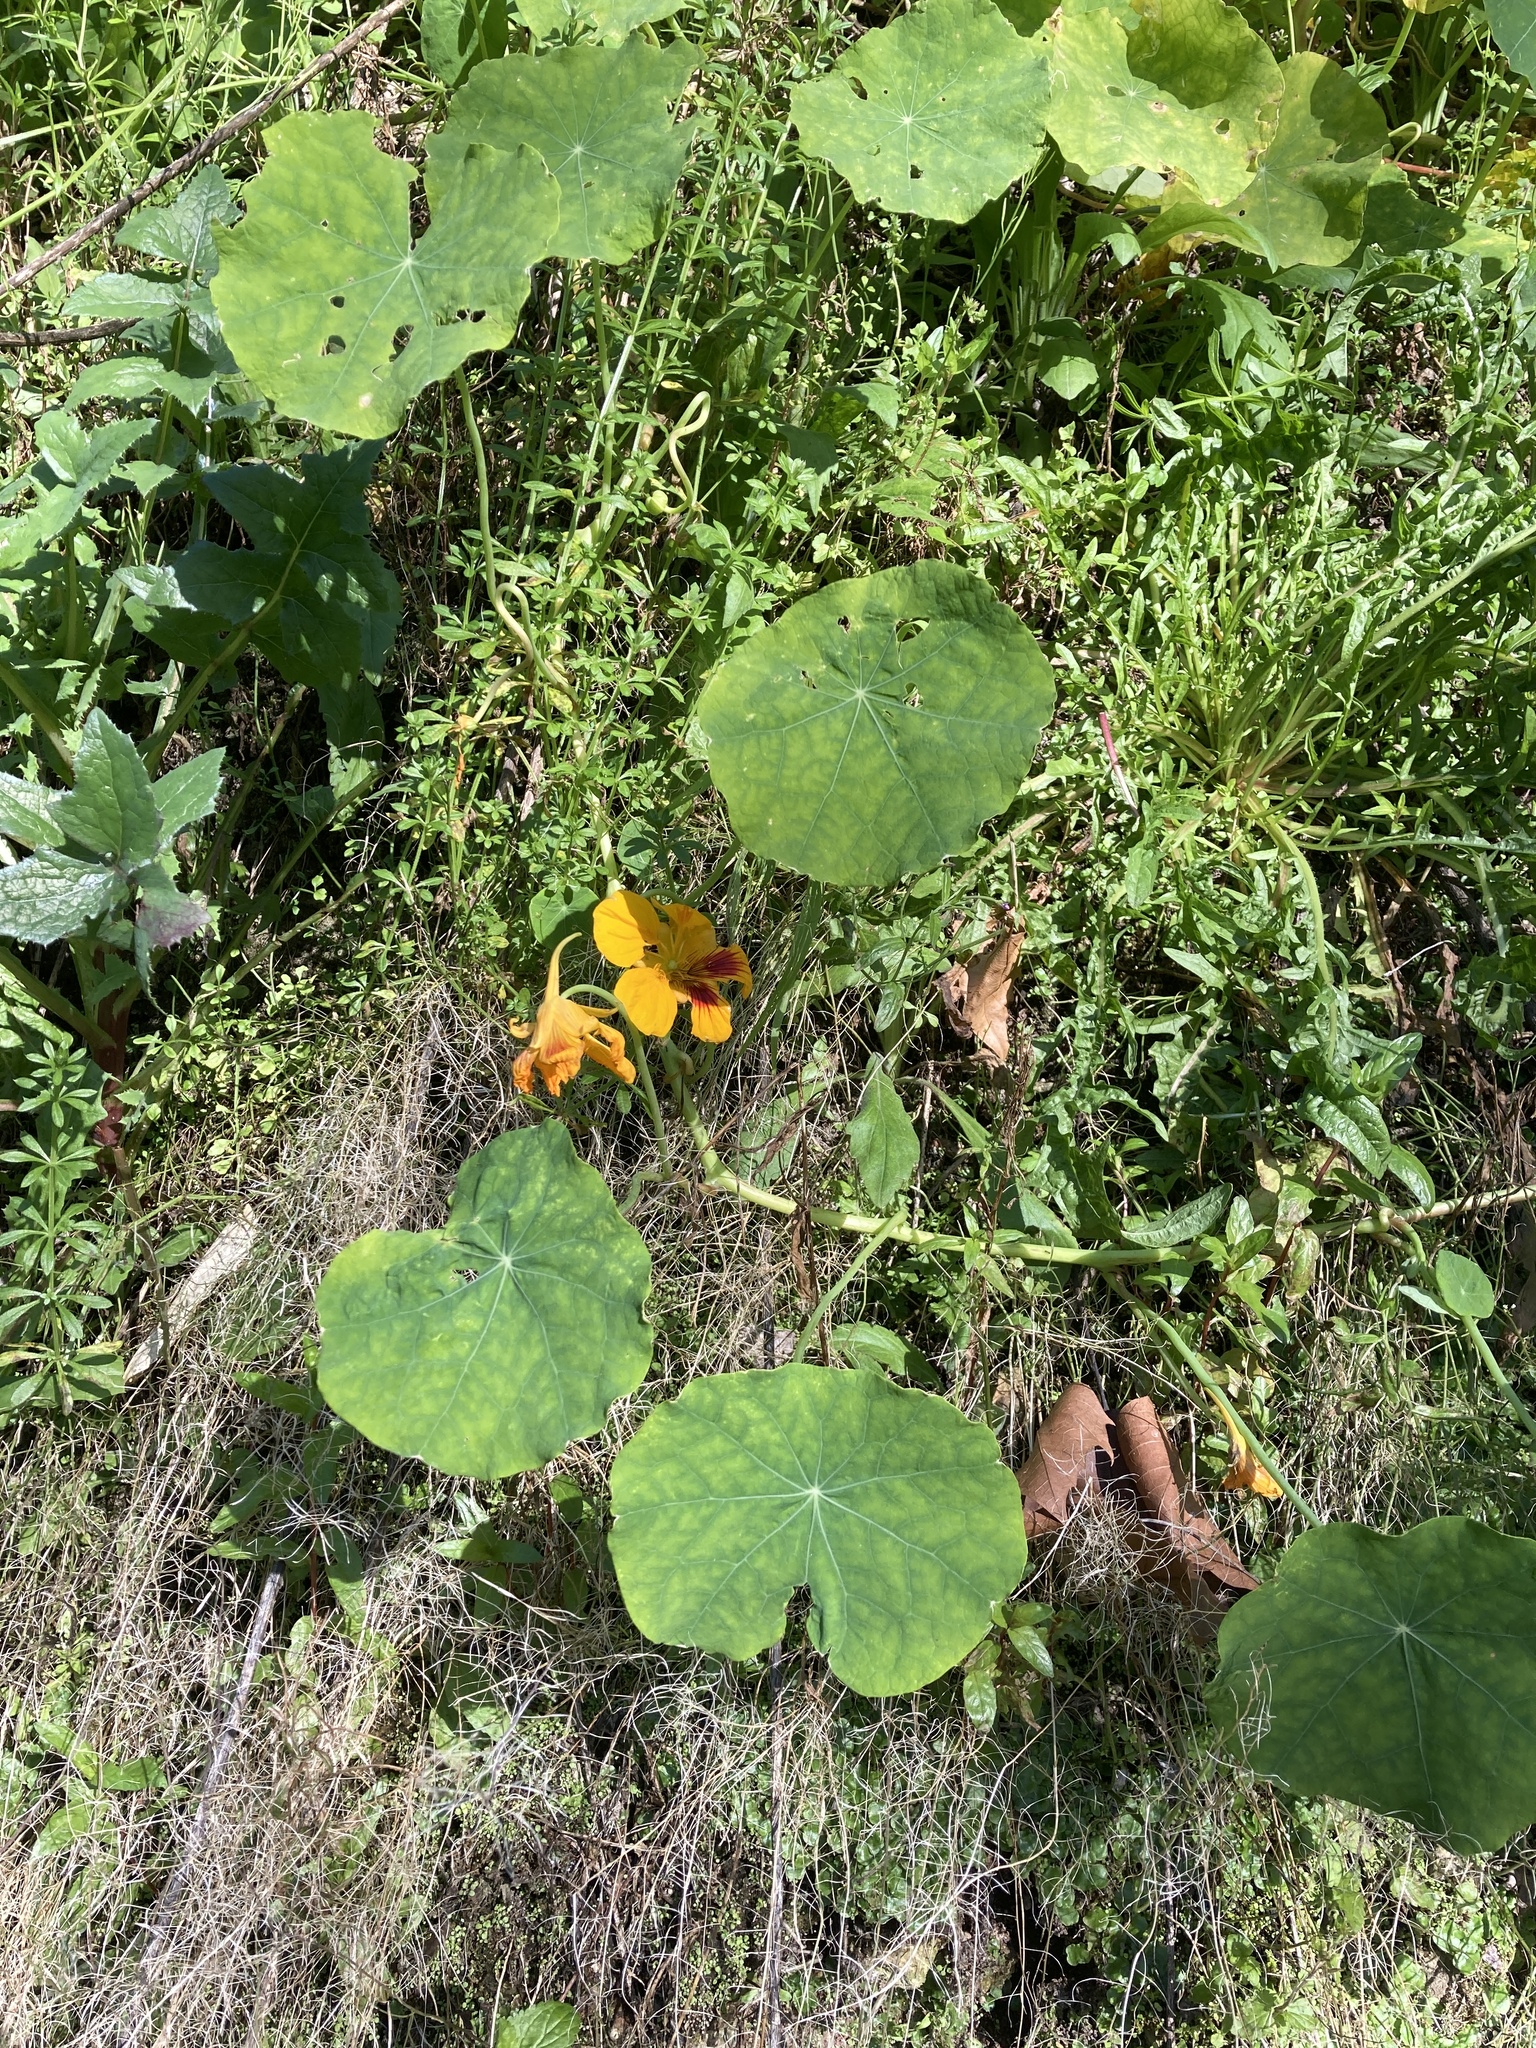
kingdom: Plantae
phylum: Tracheophyta
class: Magnoliopsida
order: Brassicales
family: Tropaeolaceae
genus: Tropaeolum
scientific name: Tropaeolum majus
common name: Nasturtium
